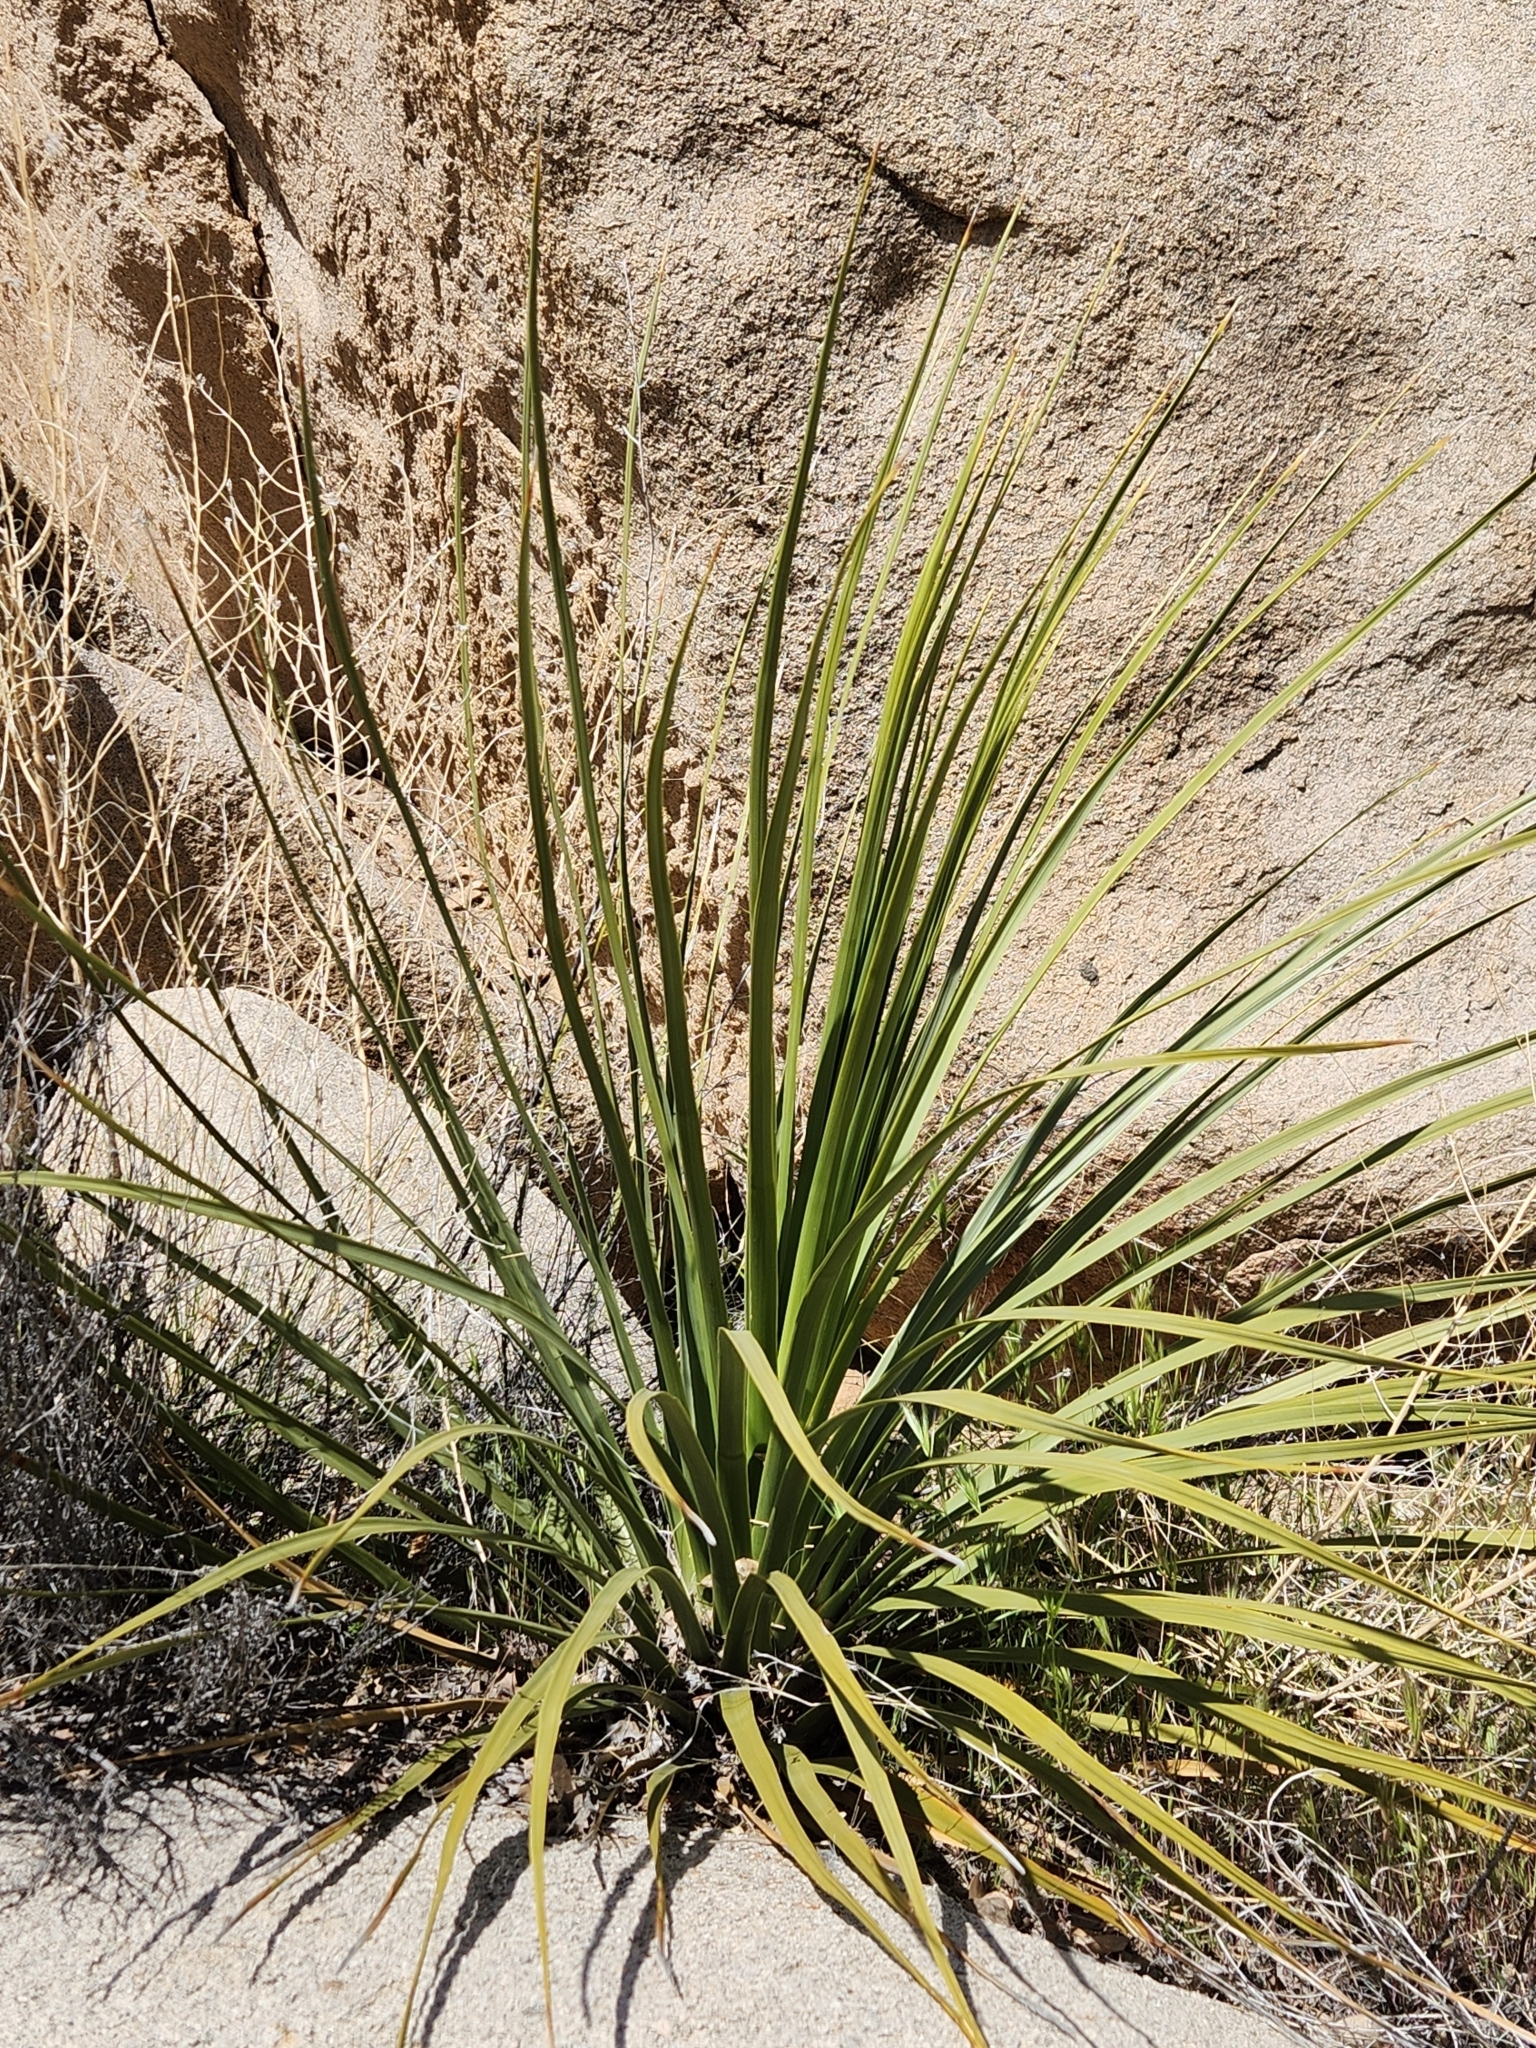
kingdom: Plantae
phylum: Tracheophyta
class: Liliopsida
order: Asparagales
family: Asparagaceae
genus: Nolina
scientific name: Nolina parryi
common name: Parry nolina
